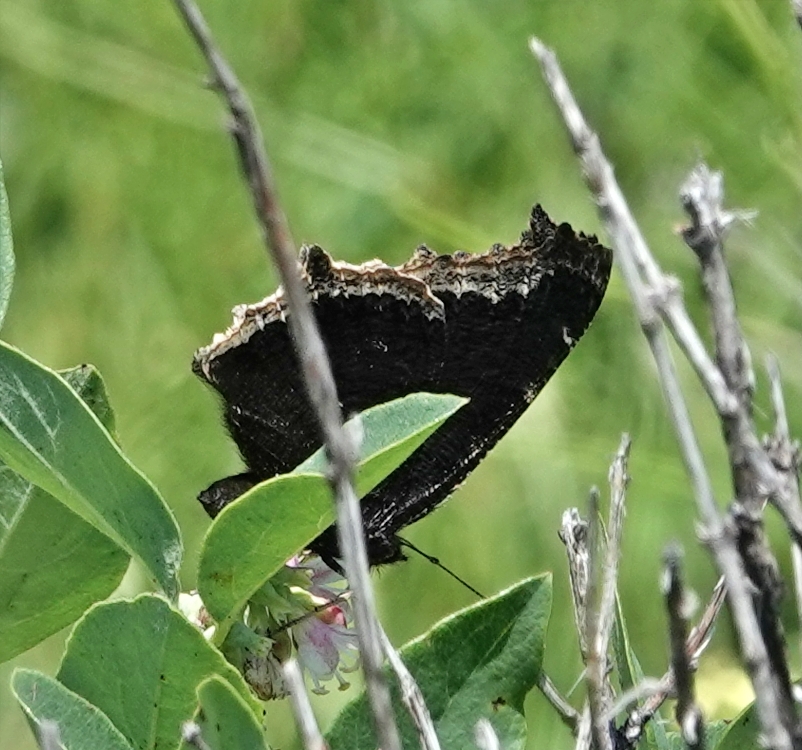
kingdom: Animalia
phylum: Arthropoda
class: Insecta
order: Lepidoptera
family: Nymphalidae
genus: Nymphalis
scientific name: Nymphalis antiopa
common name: Camberwell beauty
